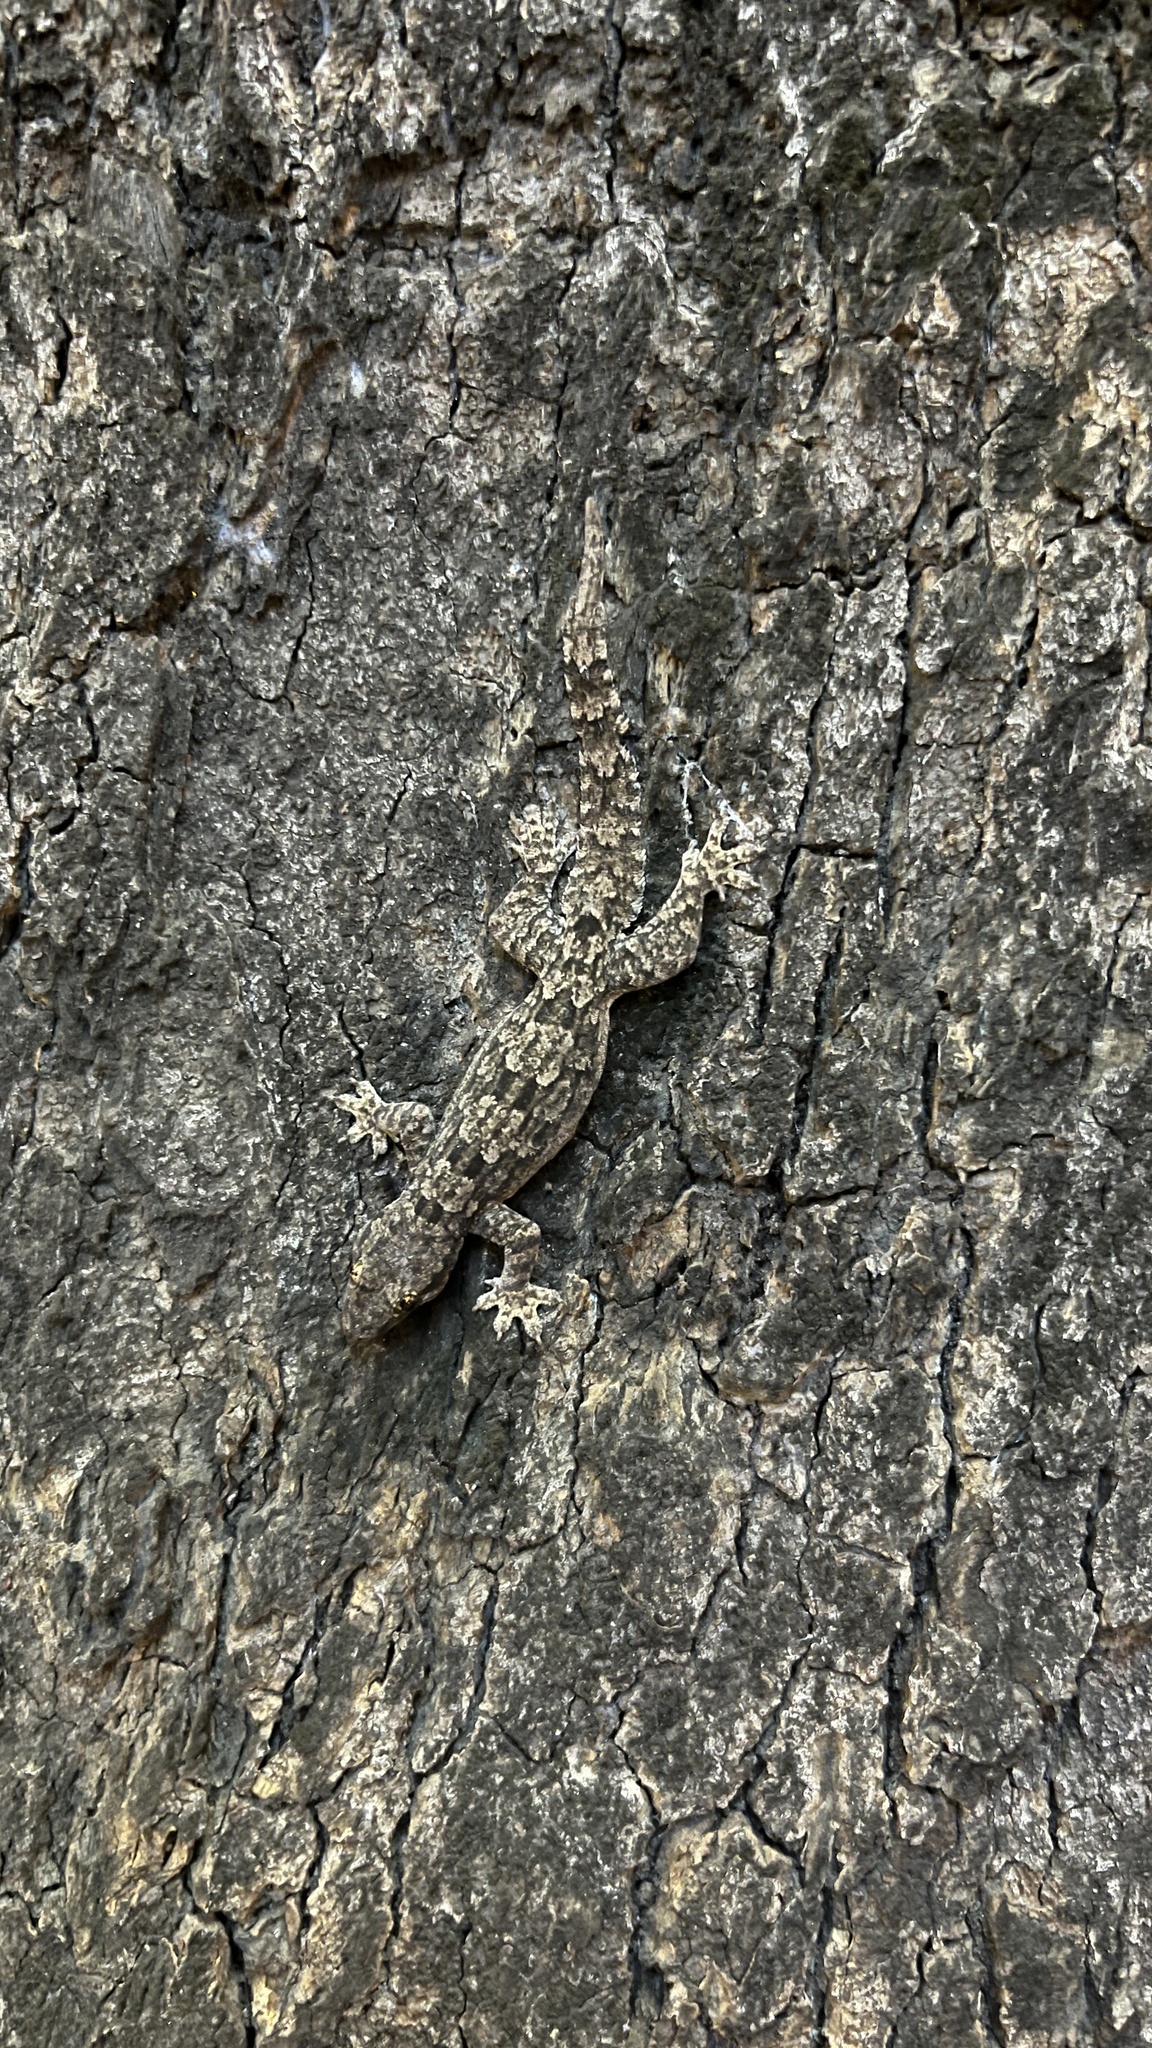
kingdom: Animalia
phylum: Chordata
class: Squamata
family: Gekkonidae
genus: Hemidactylus
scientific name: Hemidactylus platyurus
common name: Flat-tailed house gecko
